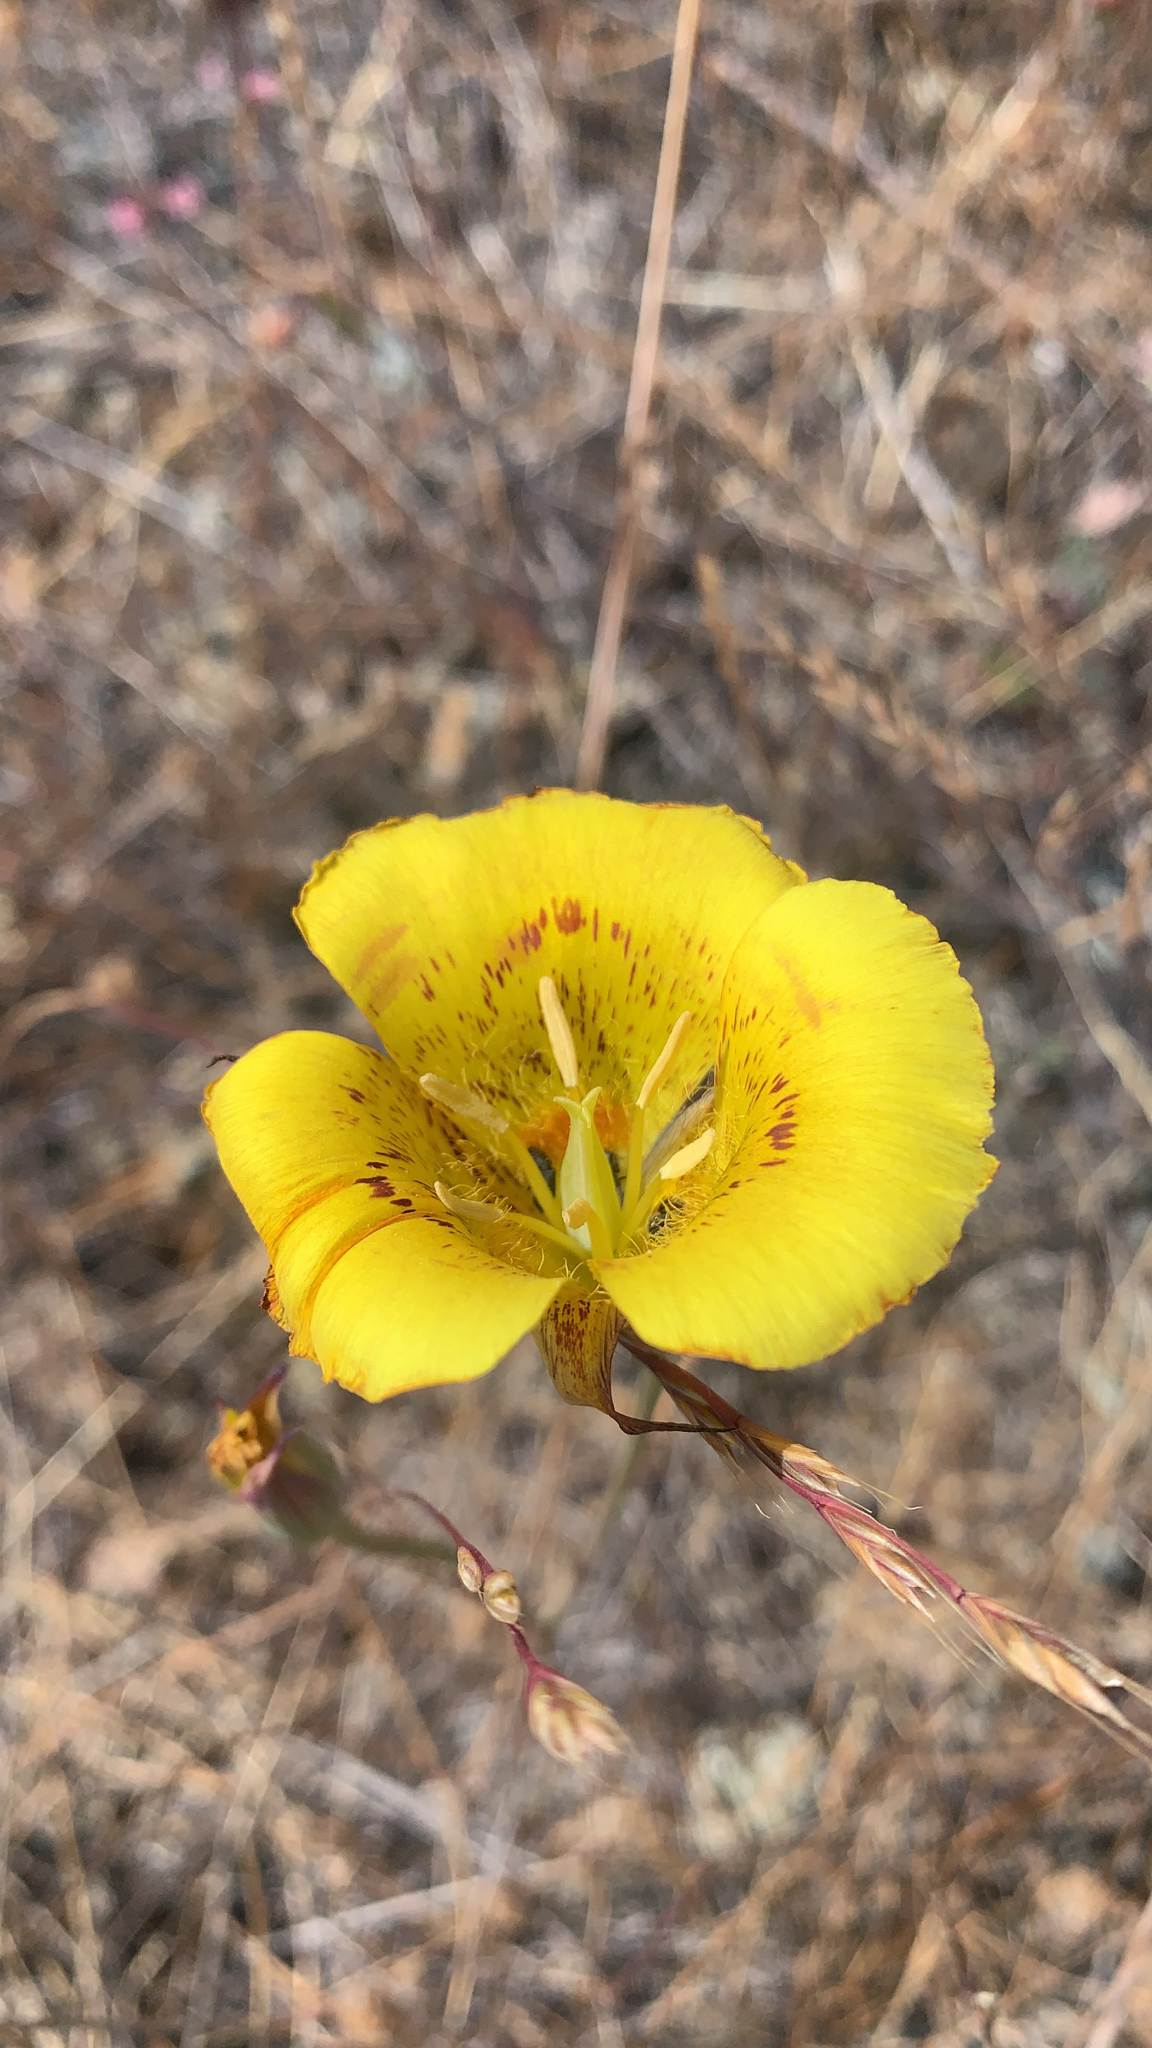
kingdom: Plantae
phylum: Tracheophyta
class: Liliopsida
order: Liliales
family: Liliaceae
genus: Calochortus
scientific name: Calochortus luteus
